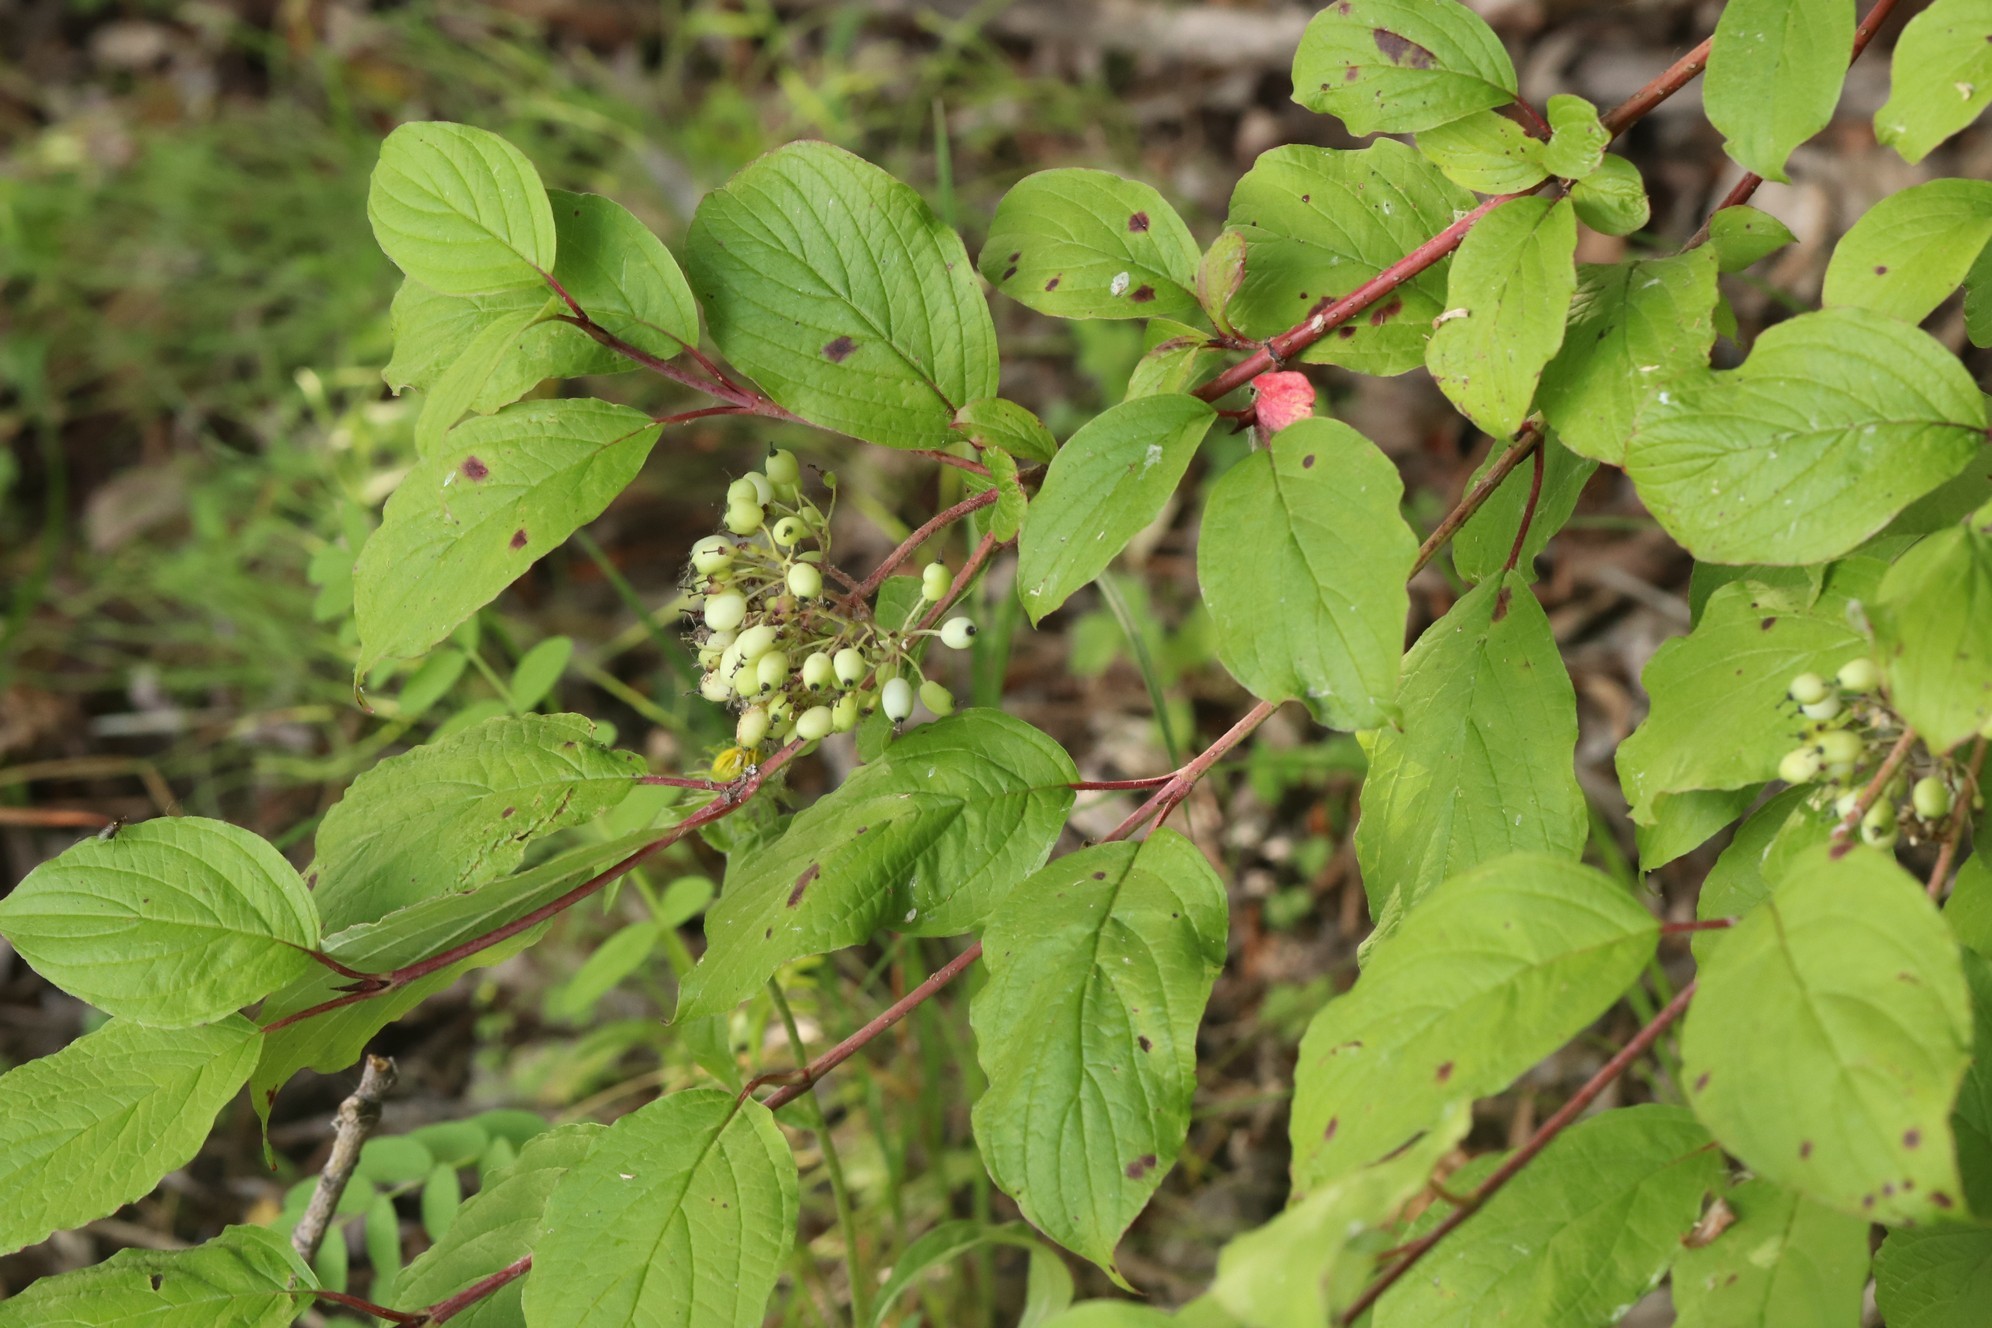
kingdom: Plantae
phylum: Tracheophyta
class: Magnoliopsida
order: Cornales
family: Cornaceae
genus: Cornus
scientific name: Cornus alba
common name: White dogwood
